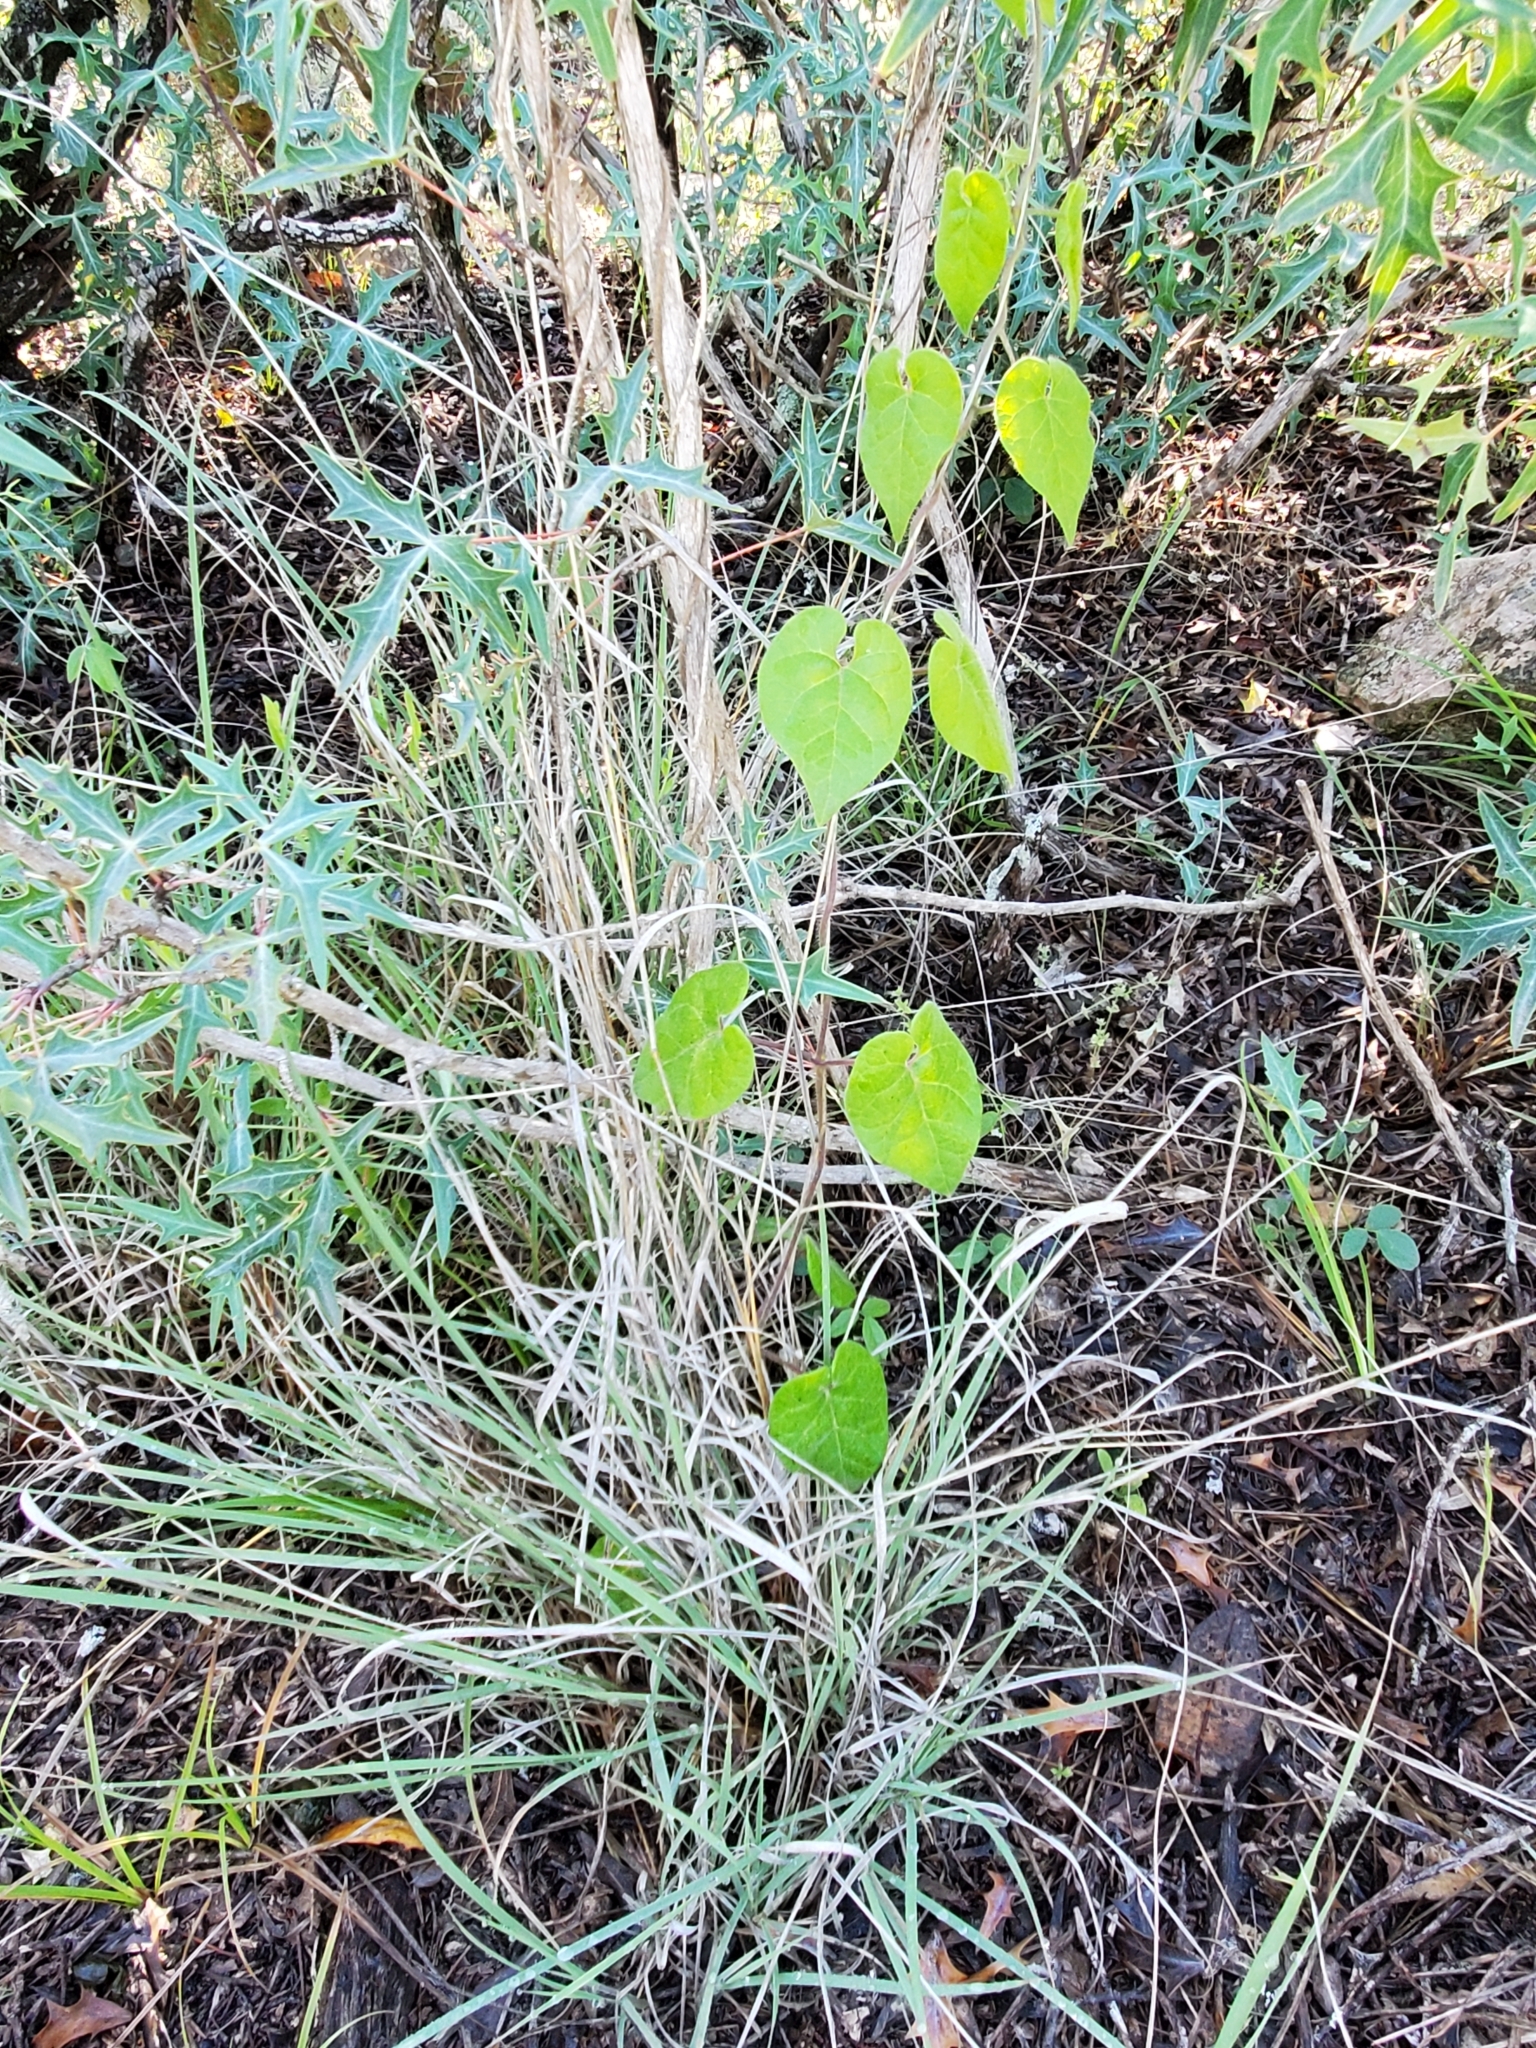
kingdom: Plantae
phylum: Tracheophyta
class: Magnoliopsida
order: Gentianales
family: Apocynaceae
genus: Dictyanthus
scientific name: Dictyanthus reticulatus
